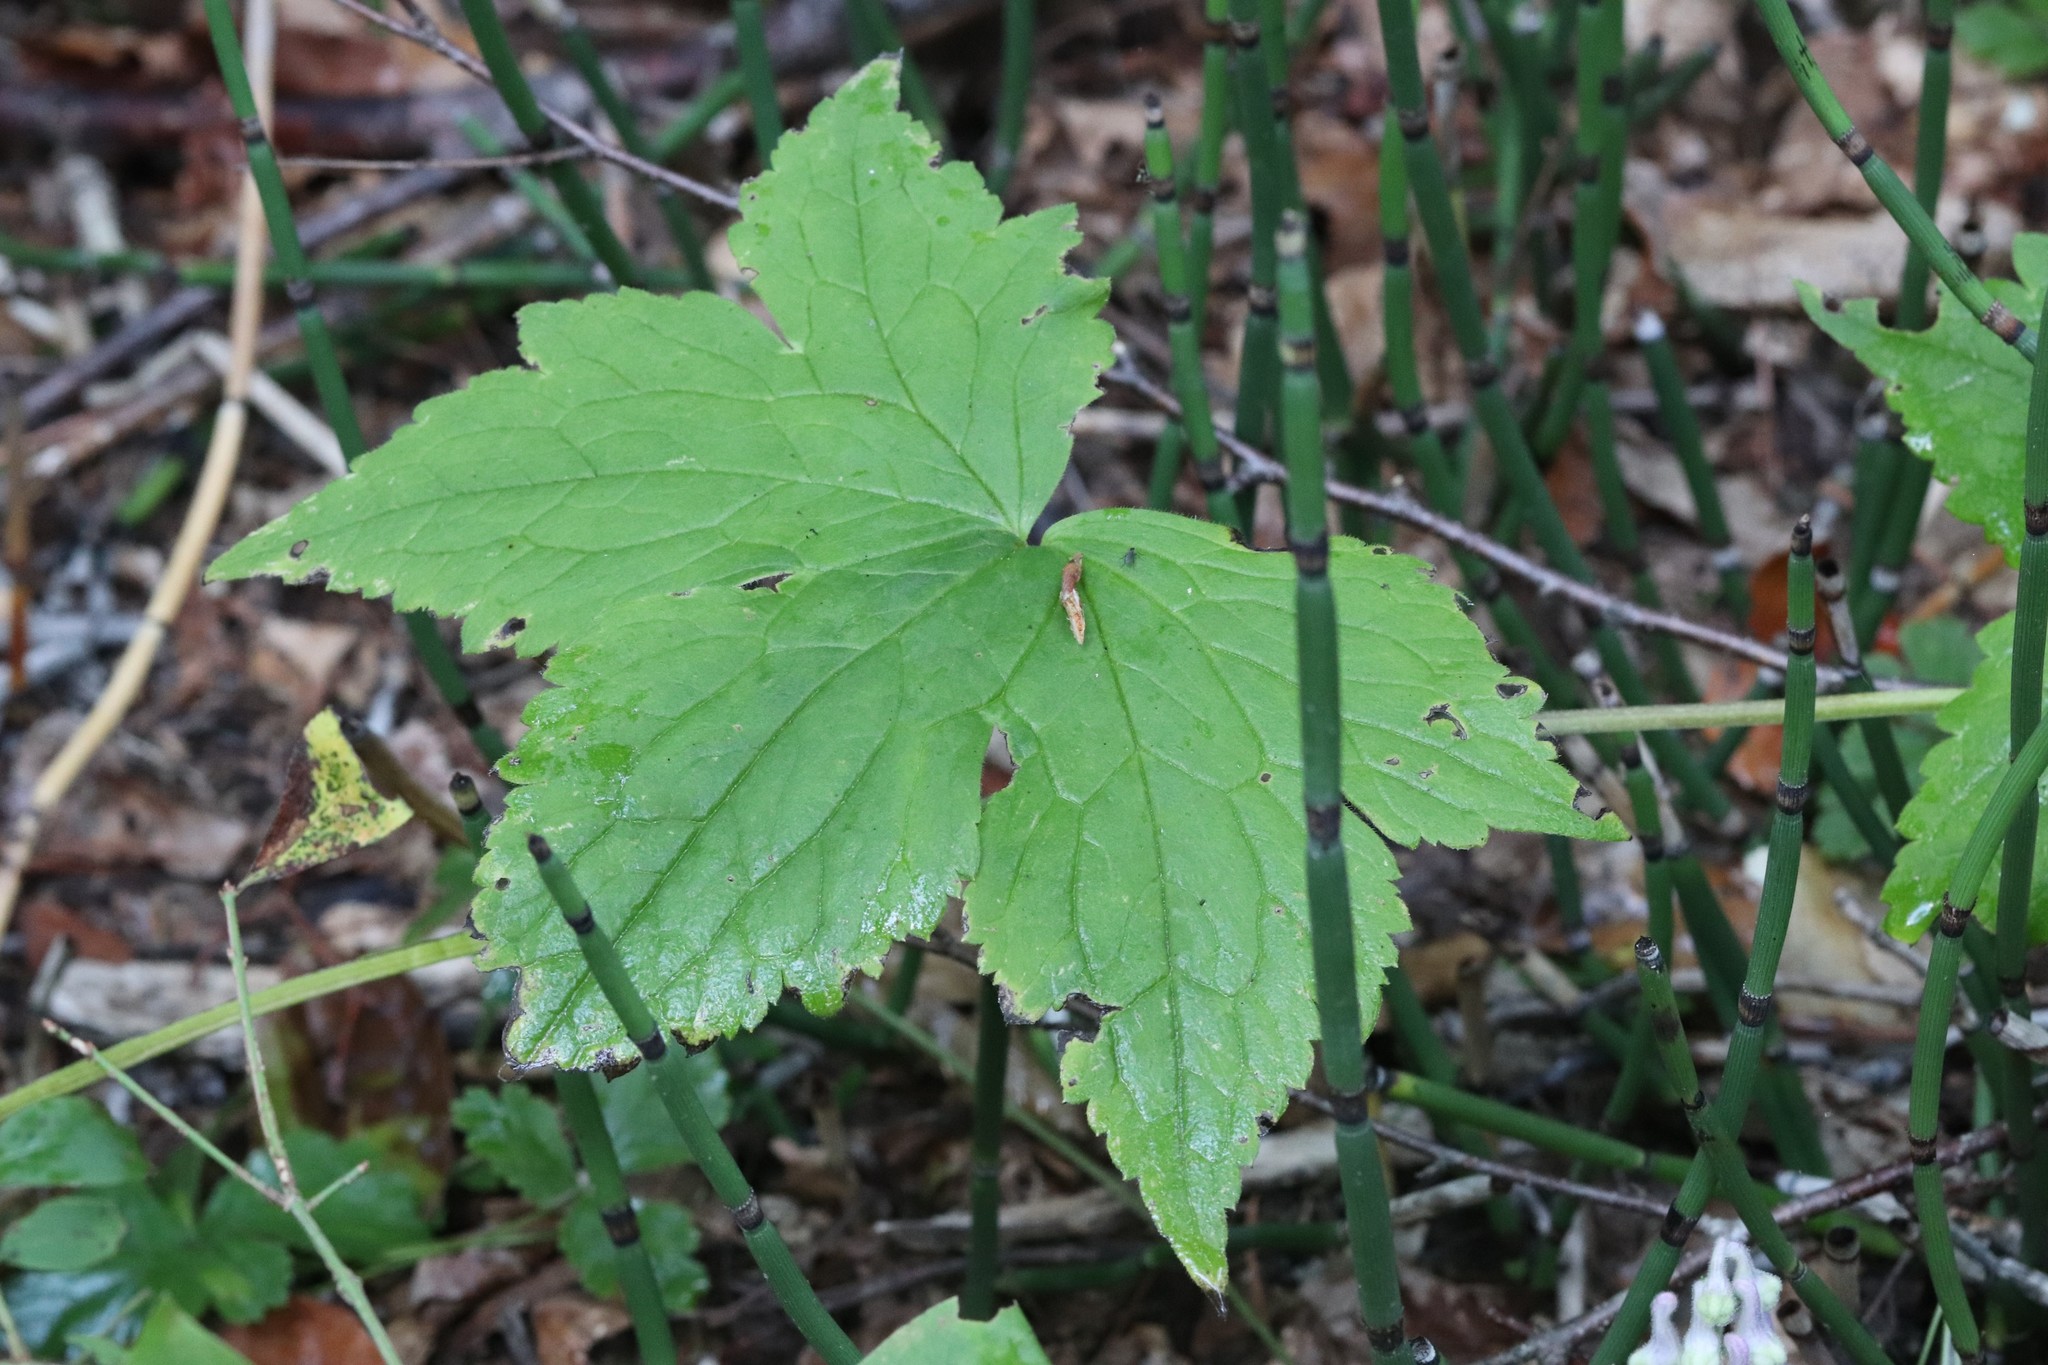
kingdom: Plantae
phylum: Tracheophyta
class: Magnoliopsida
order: Ranunculales
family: Ranunculaceae
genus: Aconitum
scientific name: Aconitum alboviolaceum
